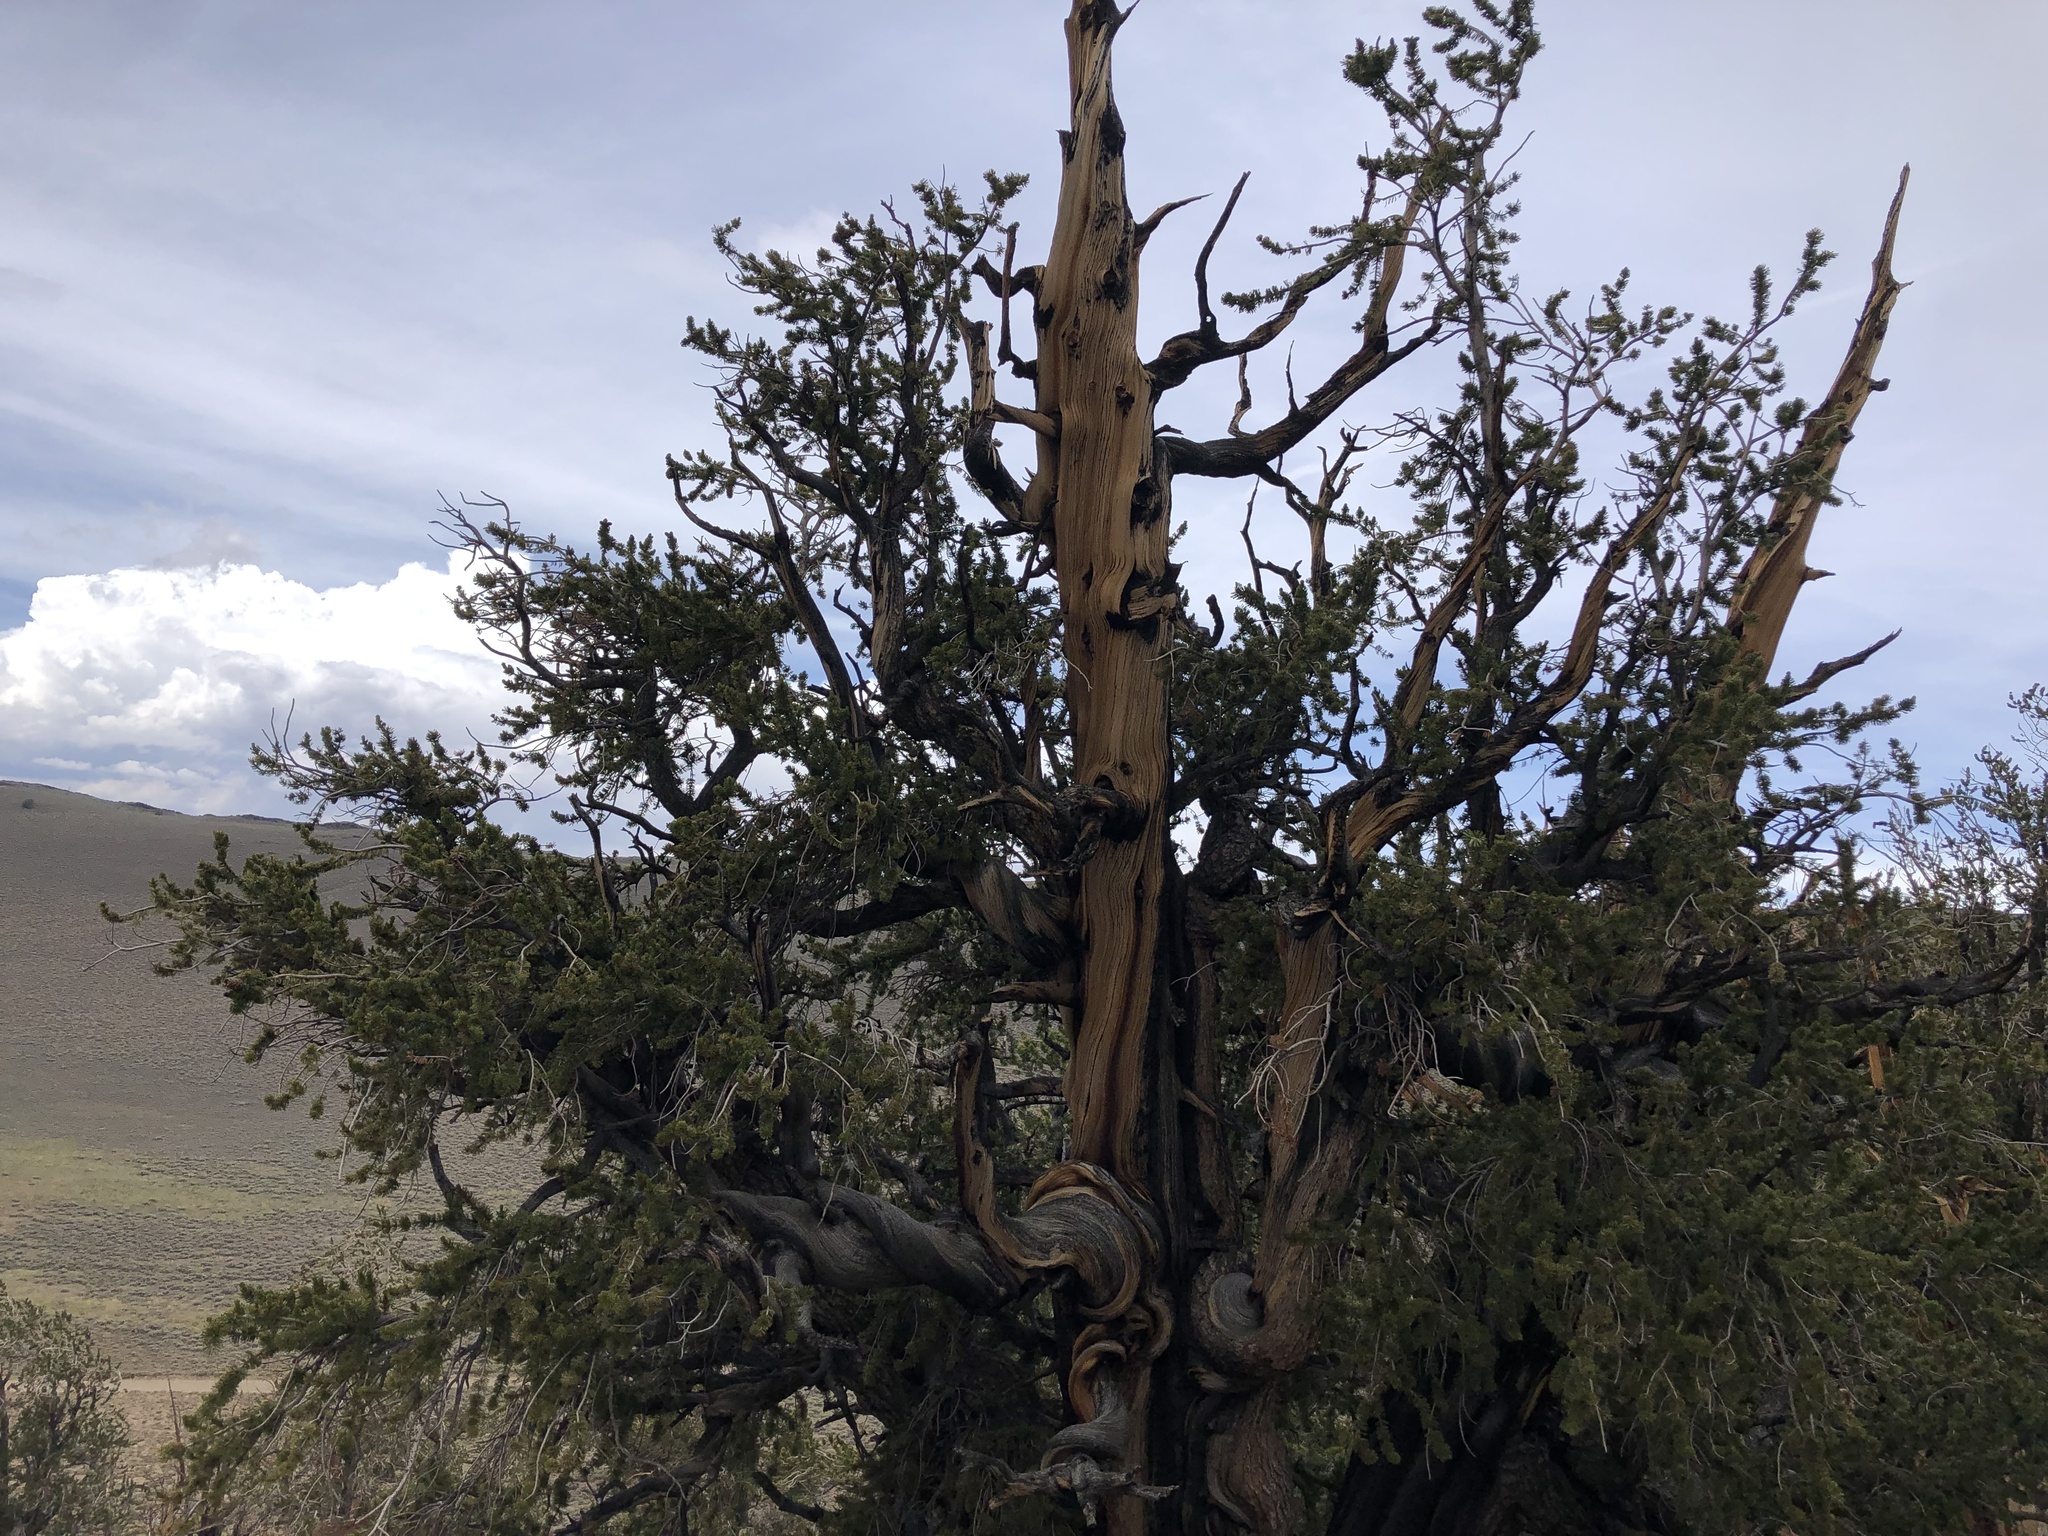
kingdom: Plantae
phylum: Tracheophyta
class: Pinopsida
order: Pinales
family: Pinaceae
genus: Pinus
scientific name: Pinus longaeva
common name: Intermountain bristlecone pine
